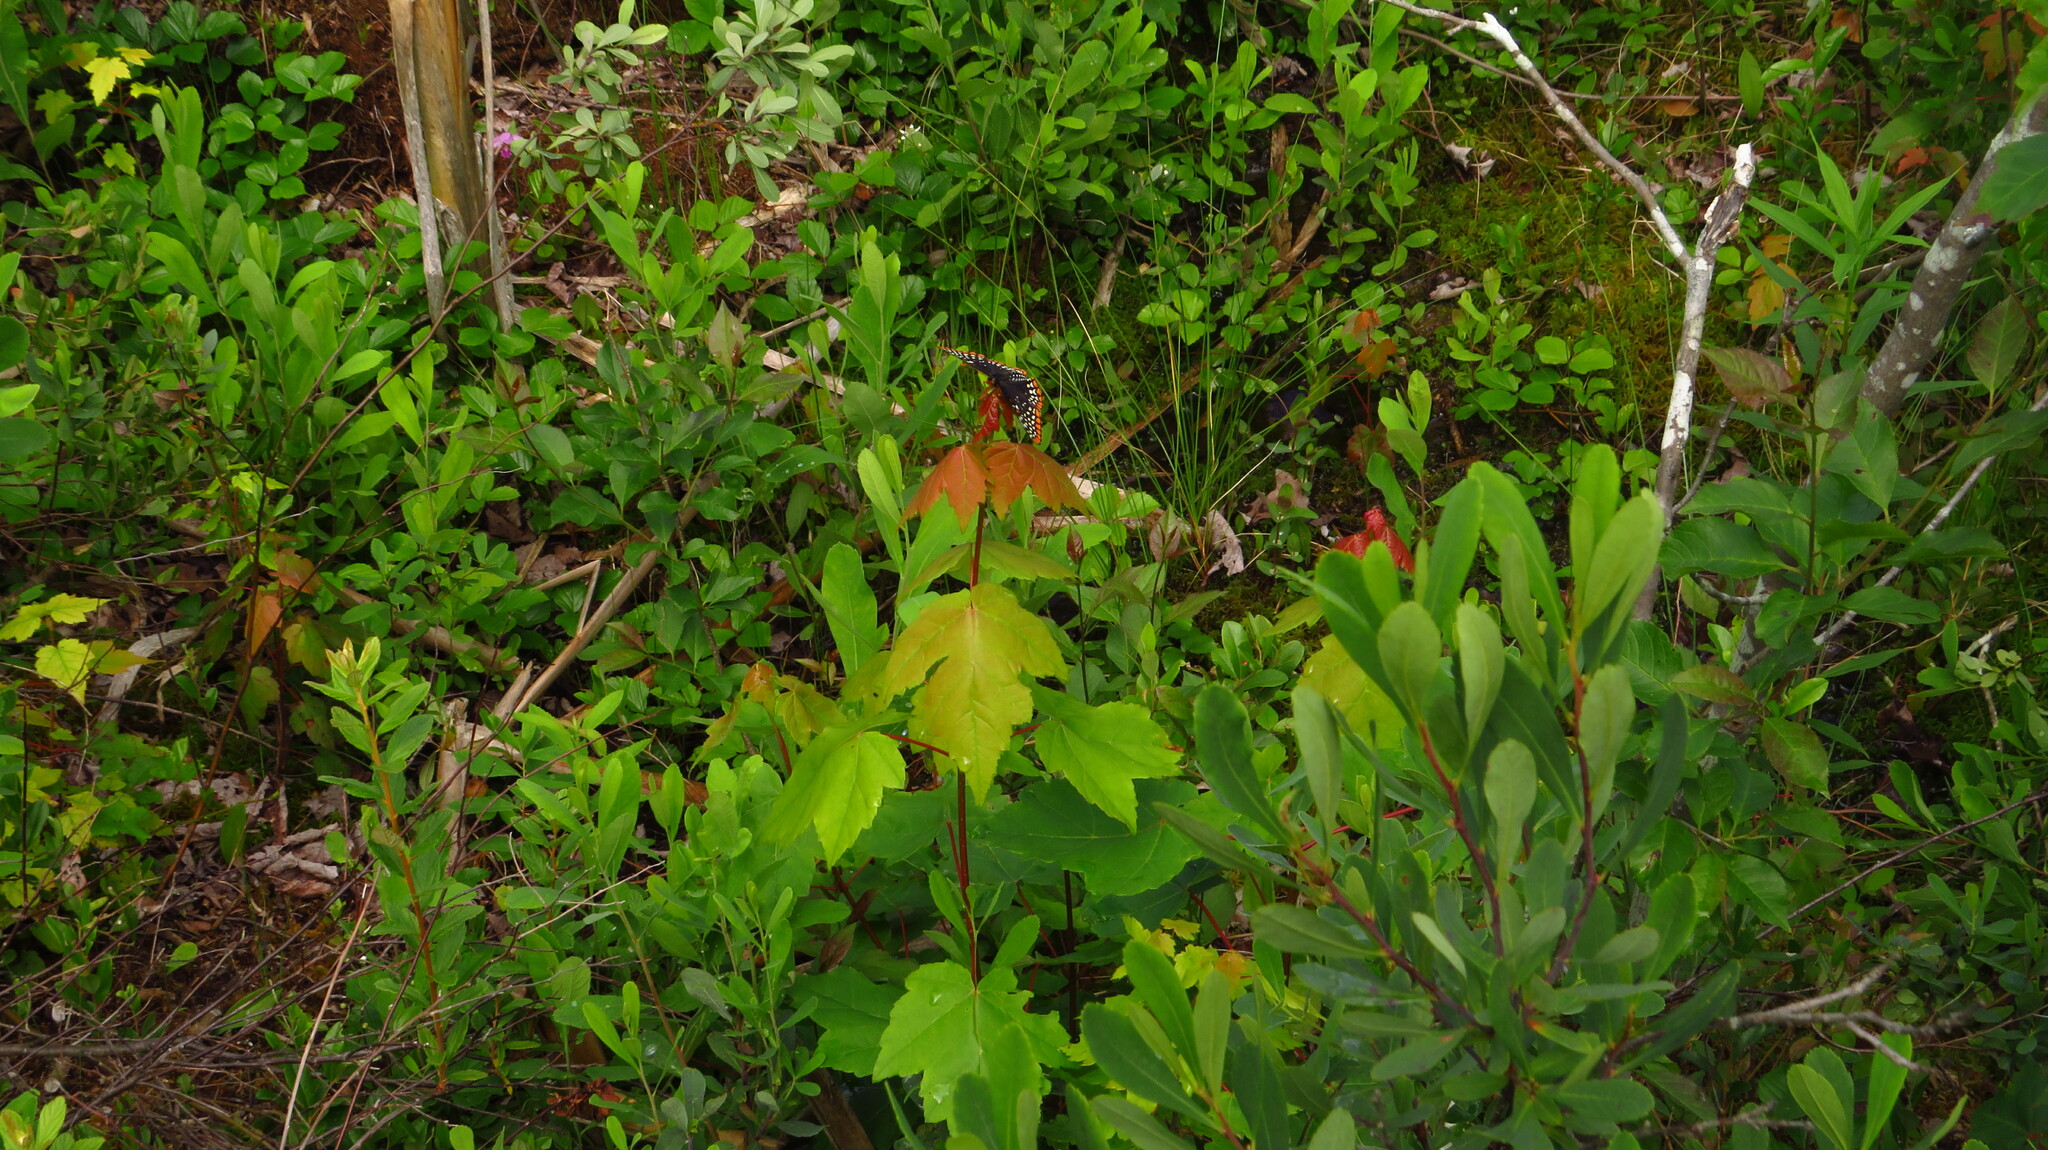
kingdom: Animalia
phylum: Arthropoda
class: Insecta
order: Lepidoptera
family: Nymphalidae
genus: Euphydryas
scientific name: Euphydryas phaeton
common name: Baltimore checkerspot
